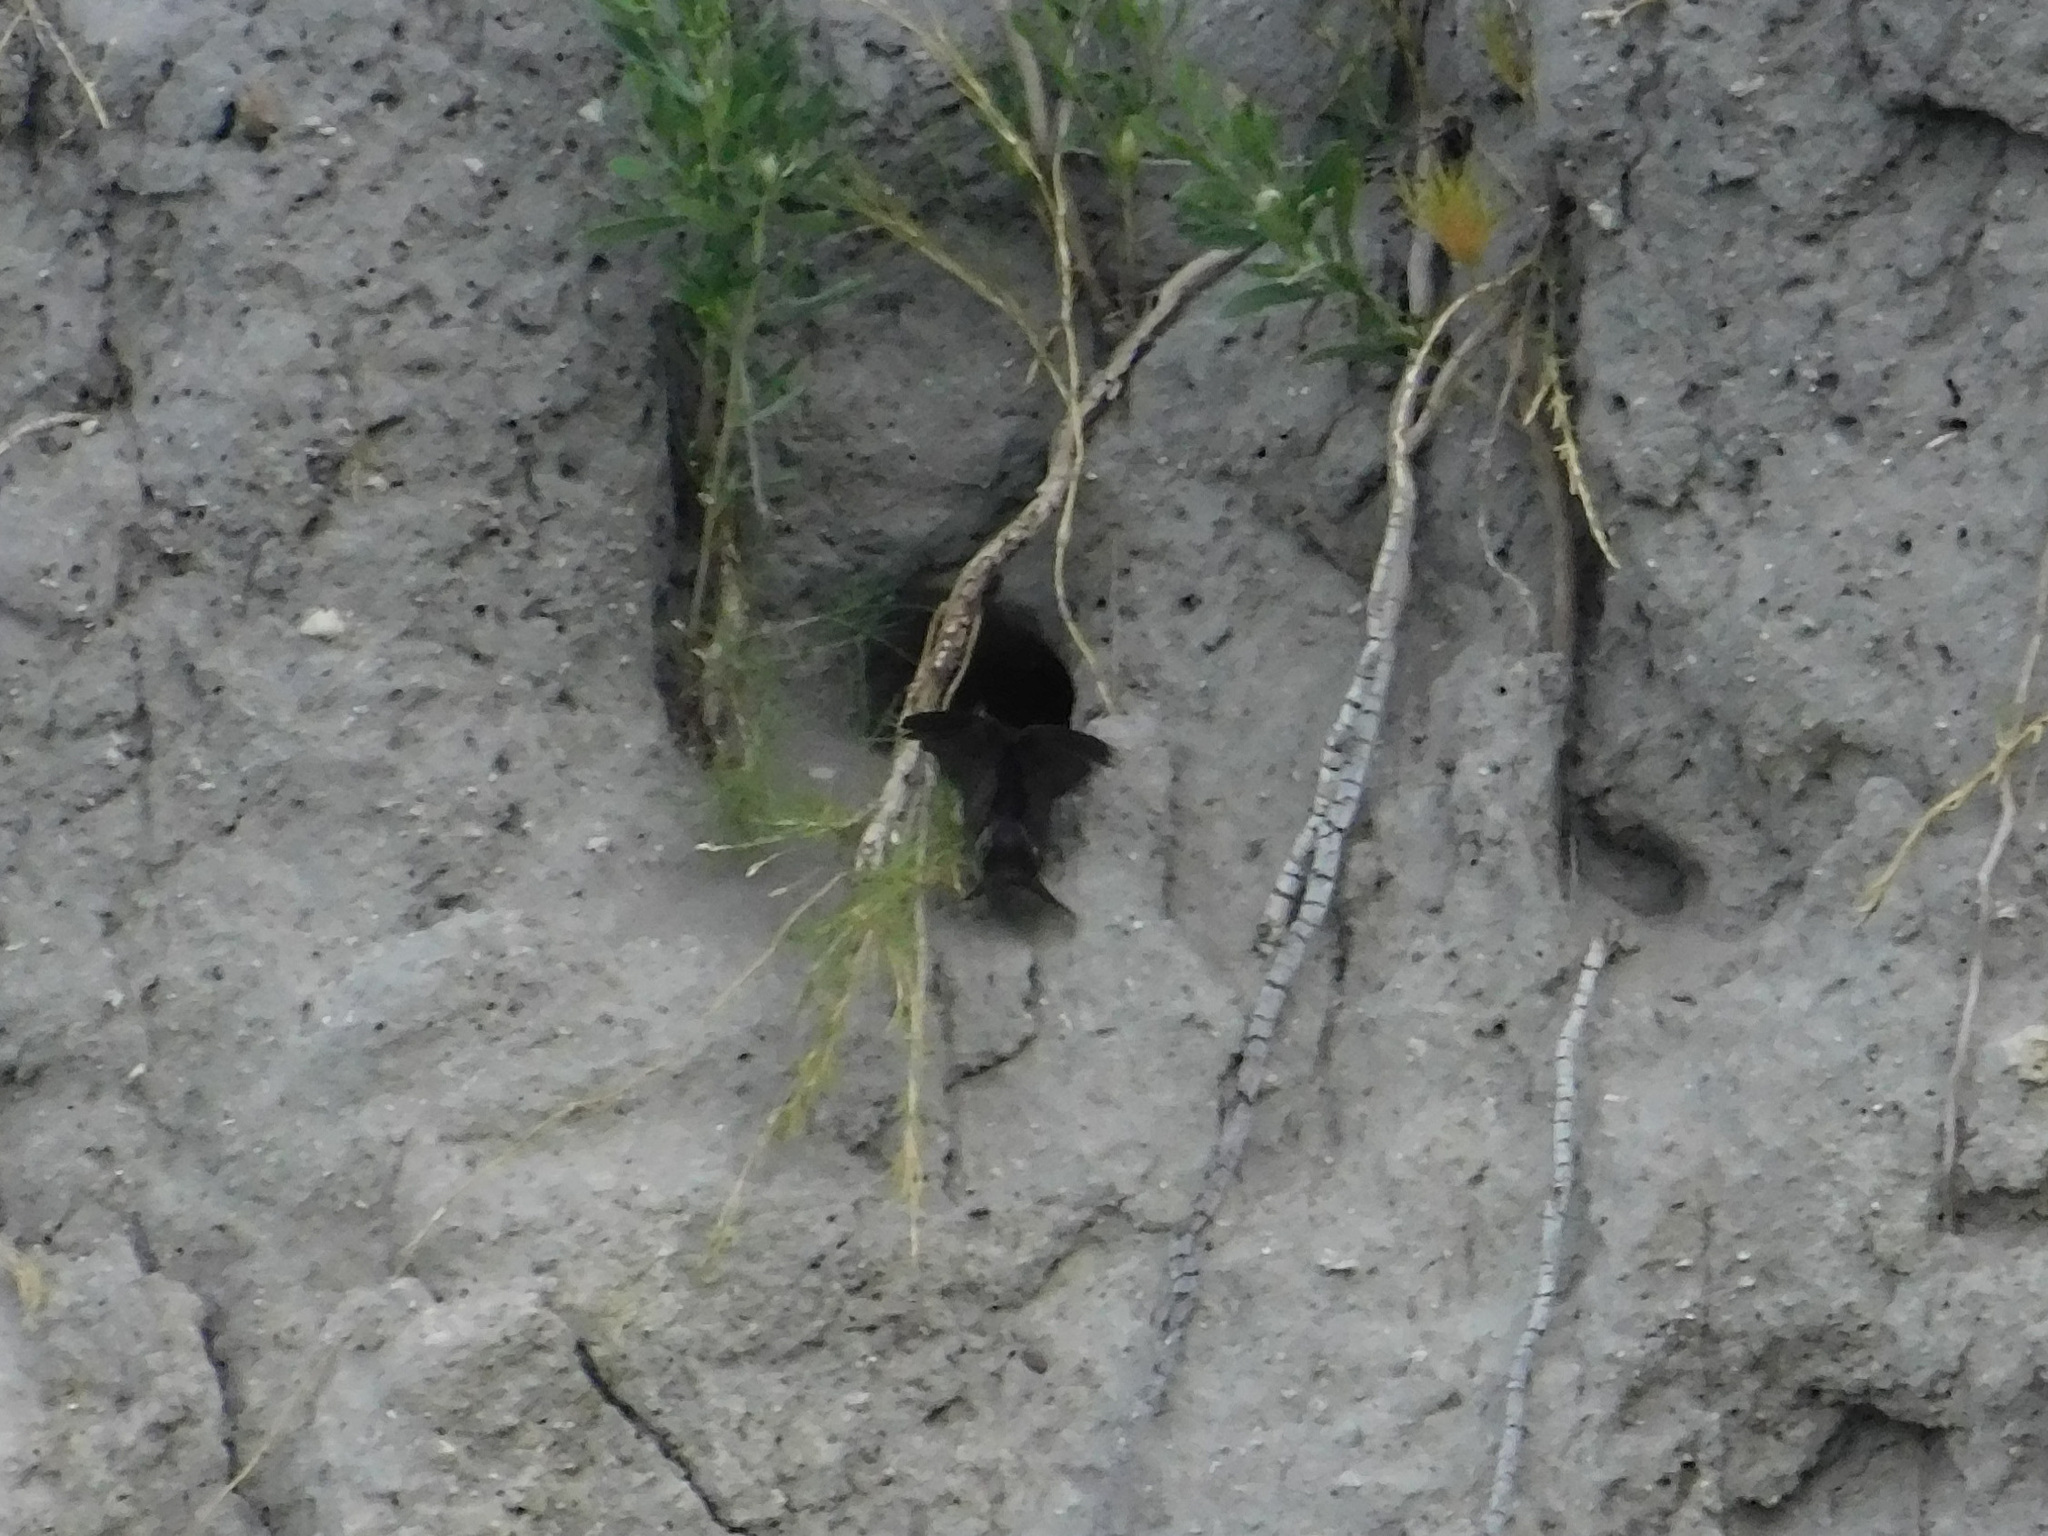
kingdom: Animalia
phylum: Chordata
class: Aves
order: Passeriformes
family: Hirundinidae
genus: Notiochelidon
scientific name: Notiochelidon cyanoleuca
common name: Blue-and-white swallow
